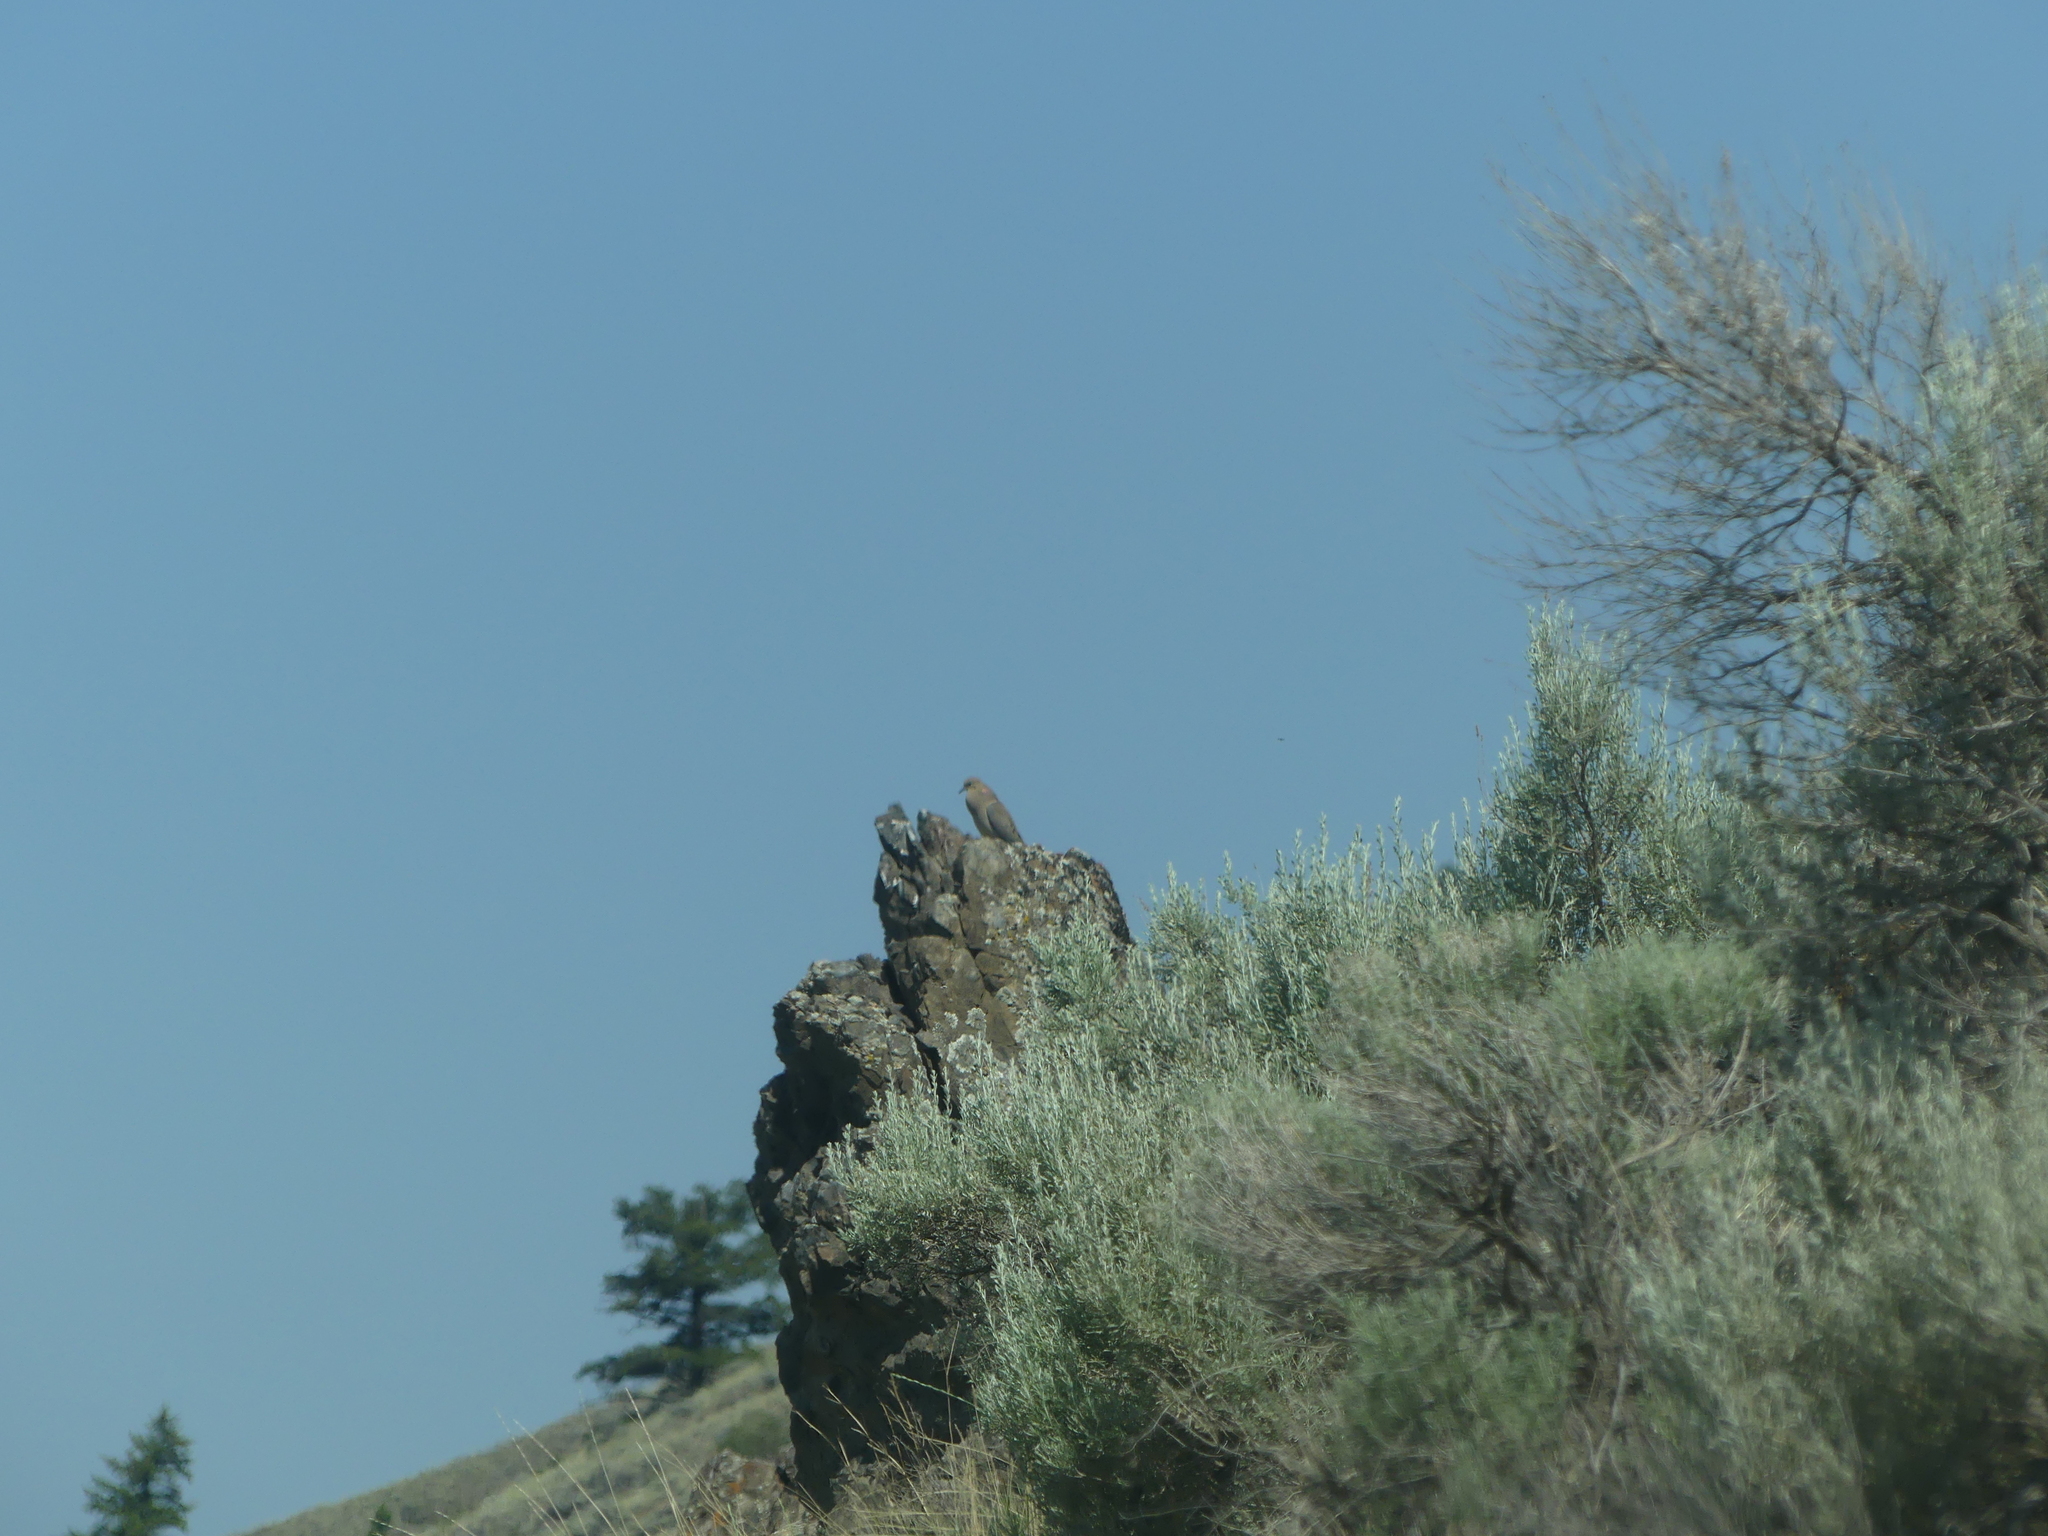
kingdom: Animalia
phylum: Chordata
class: Aves
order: Columbiformes
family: Columbidae
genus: Zenaida
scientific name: Zenaida macroura
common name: Mourning dove
